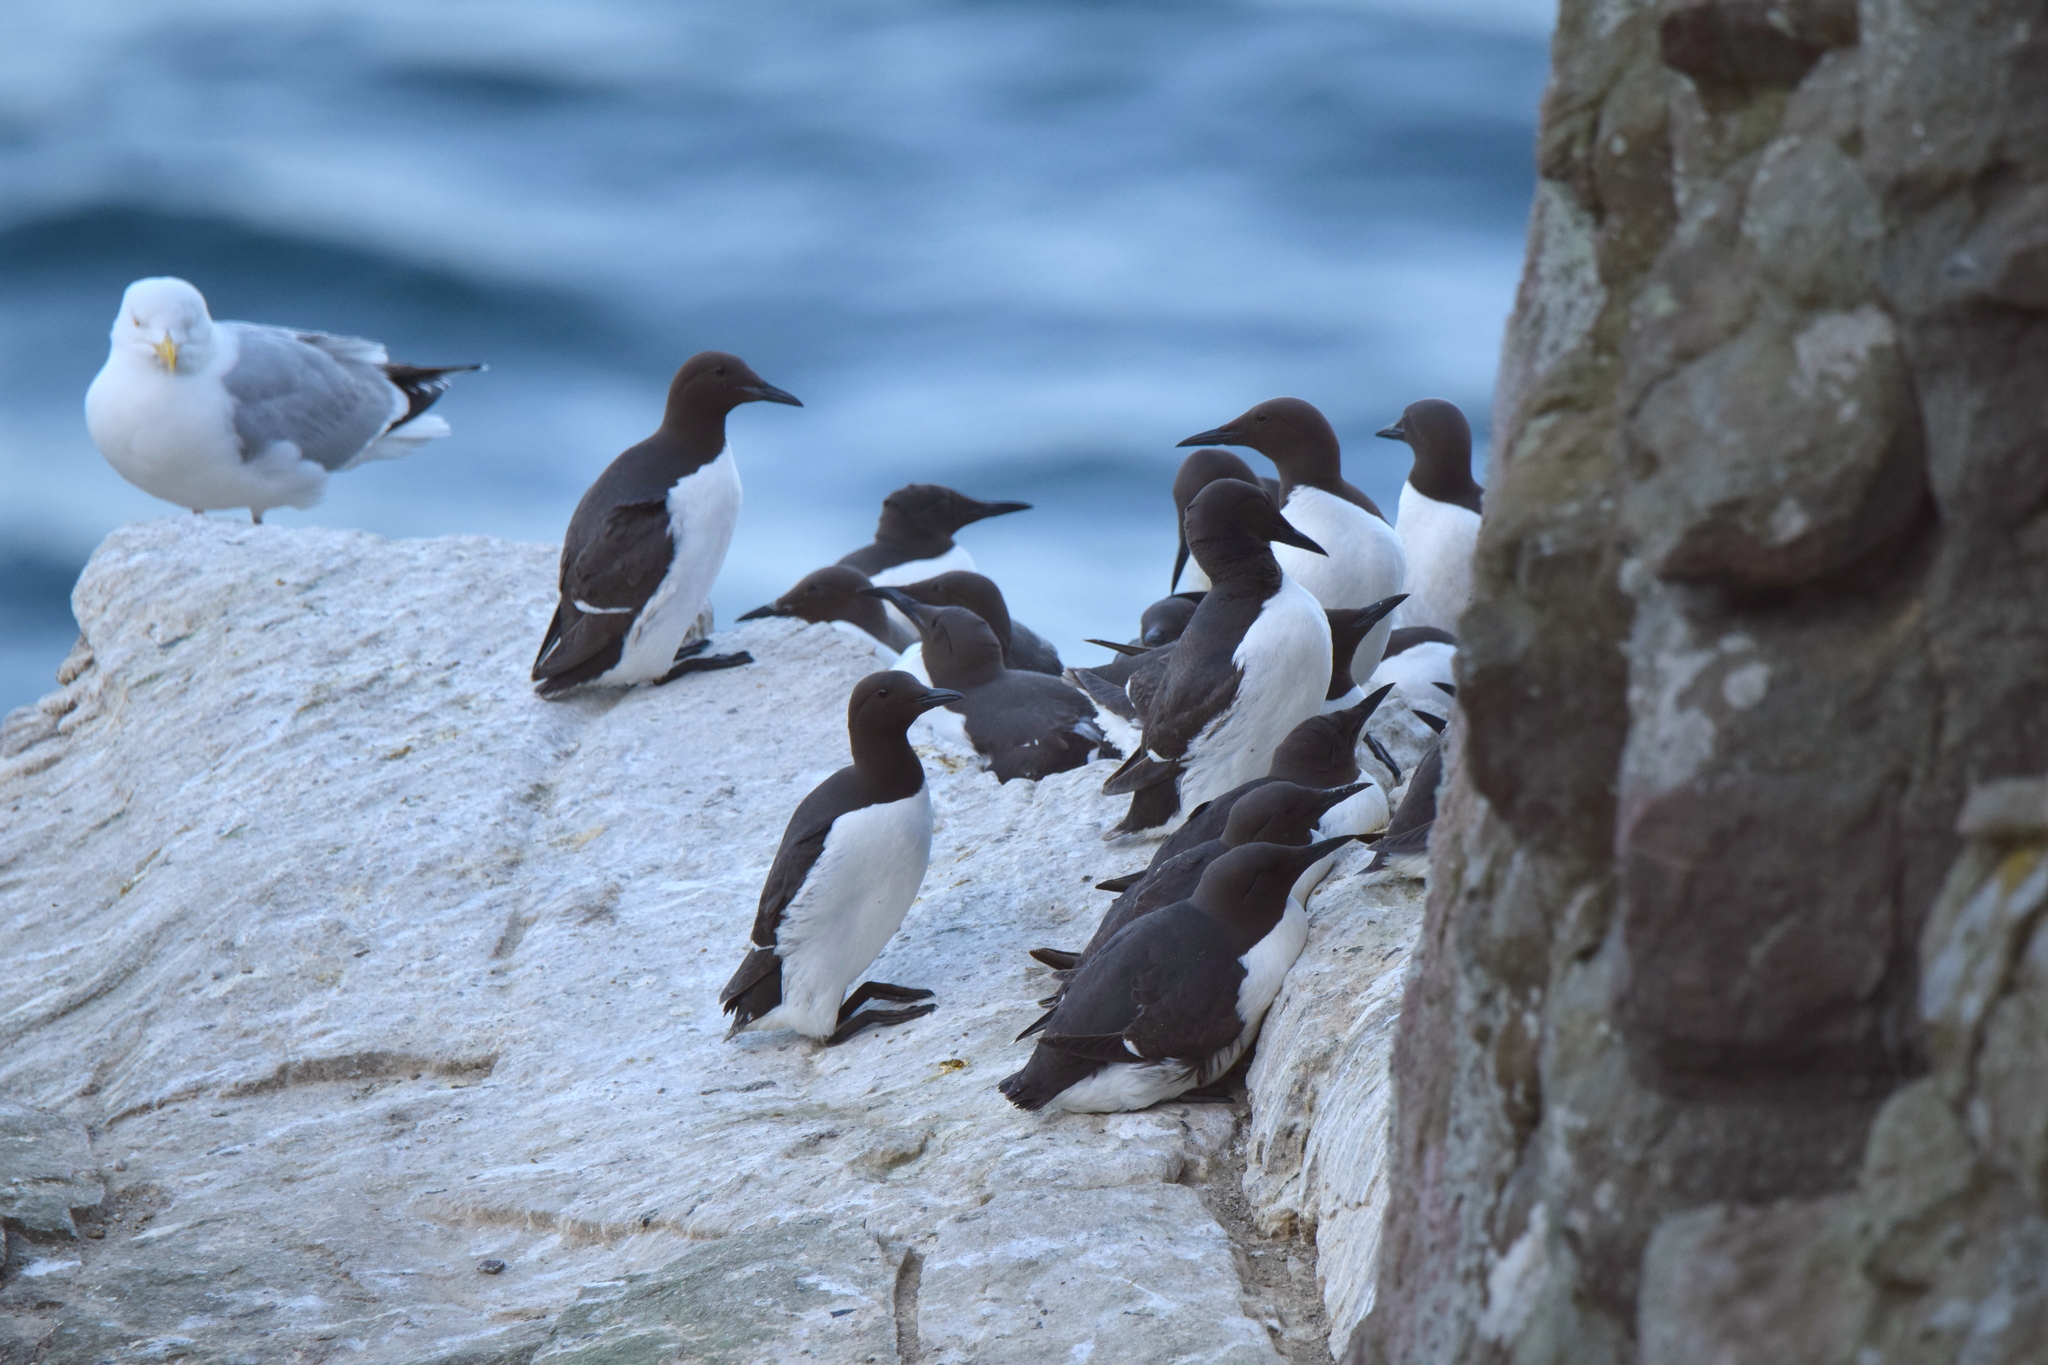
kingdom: Animalia
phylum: Chordata
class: Aves
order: Charadriiformes
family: Alcidae
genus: Uria
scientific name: Uria aalge
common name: Common murre
